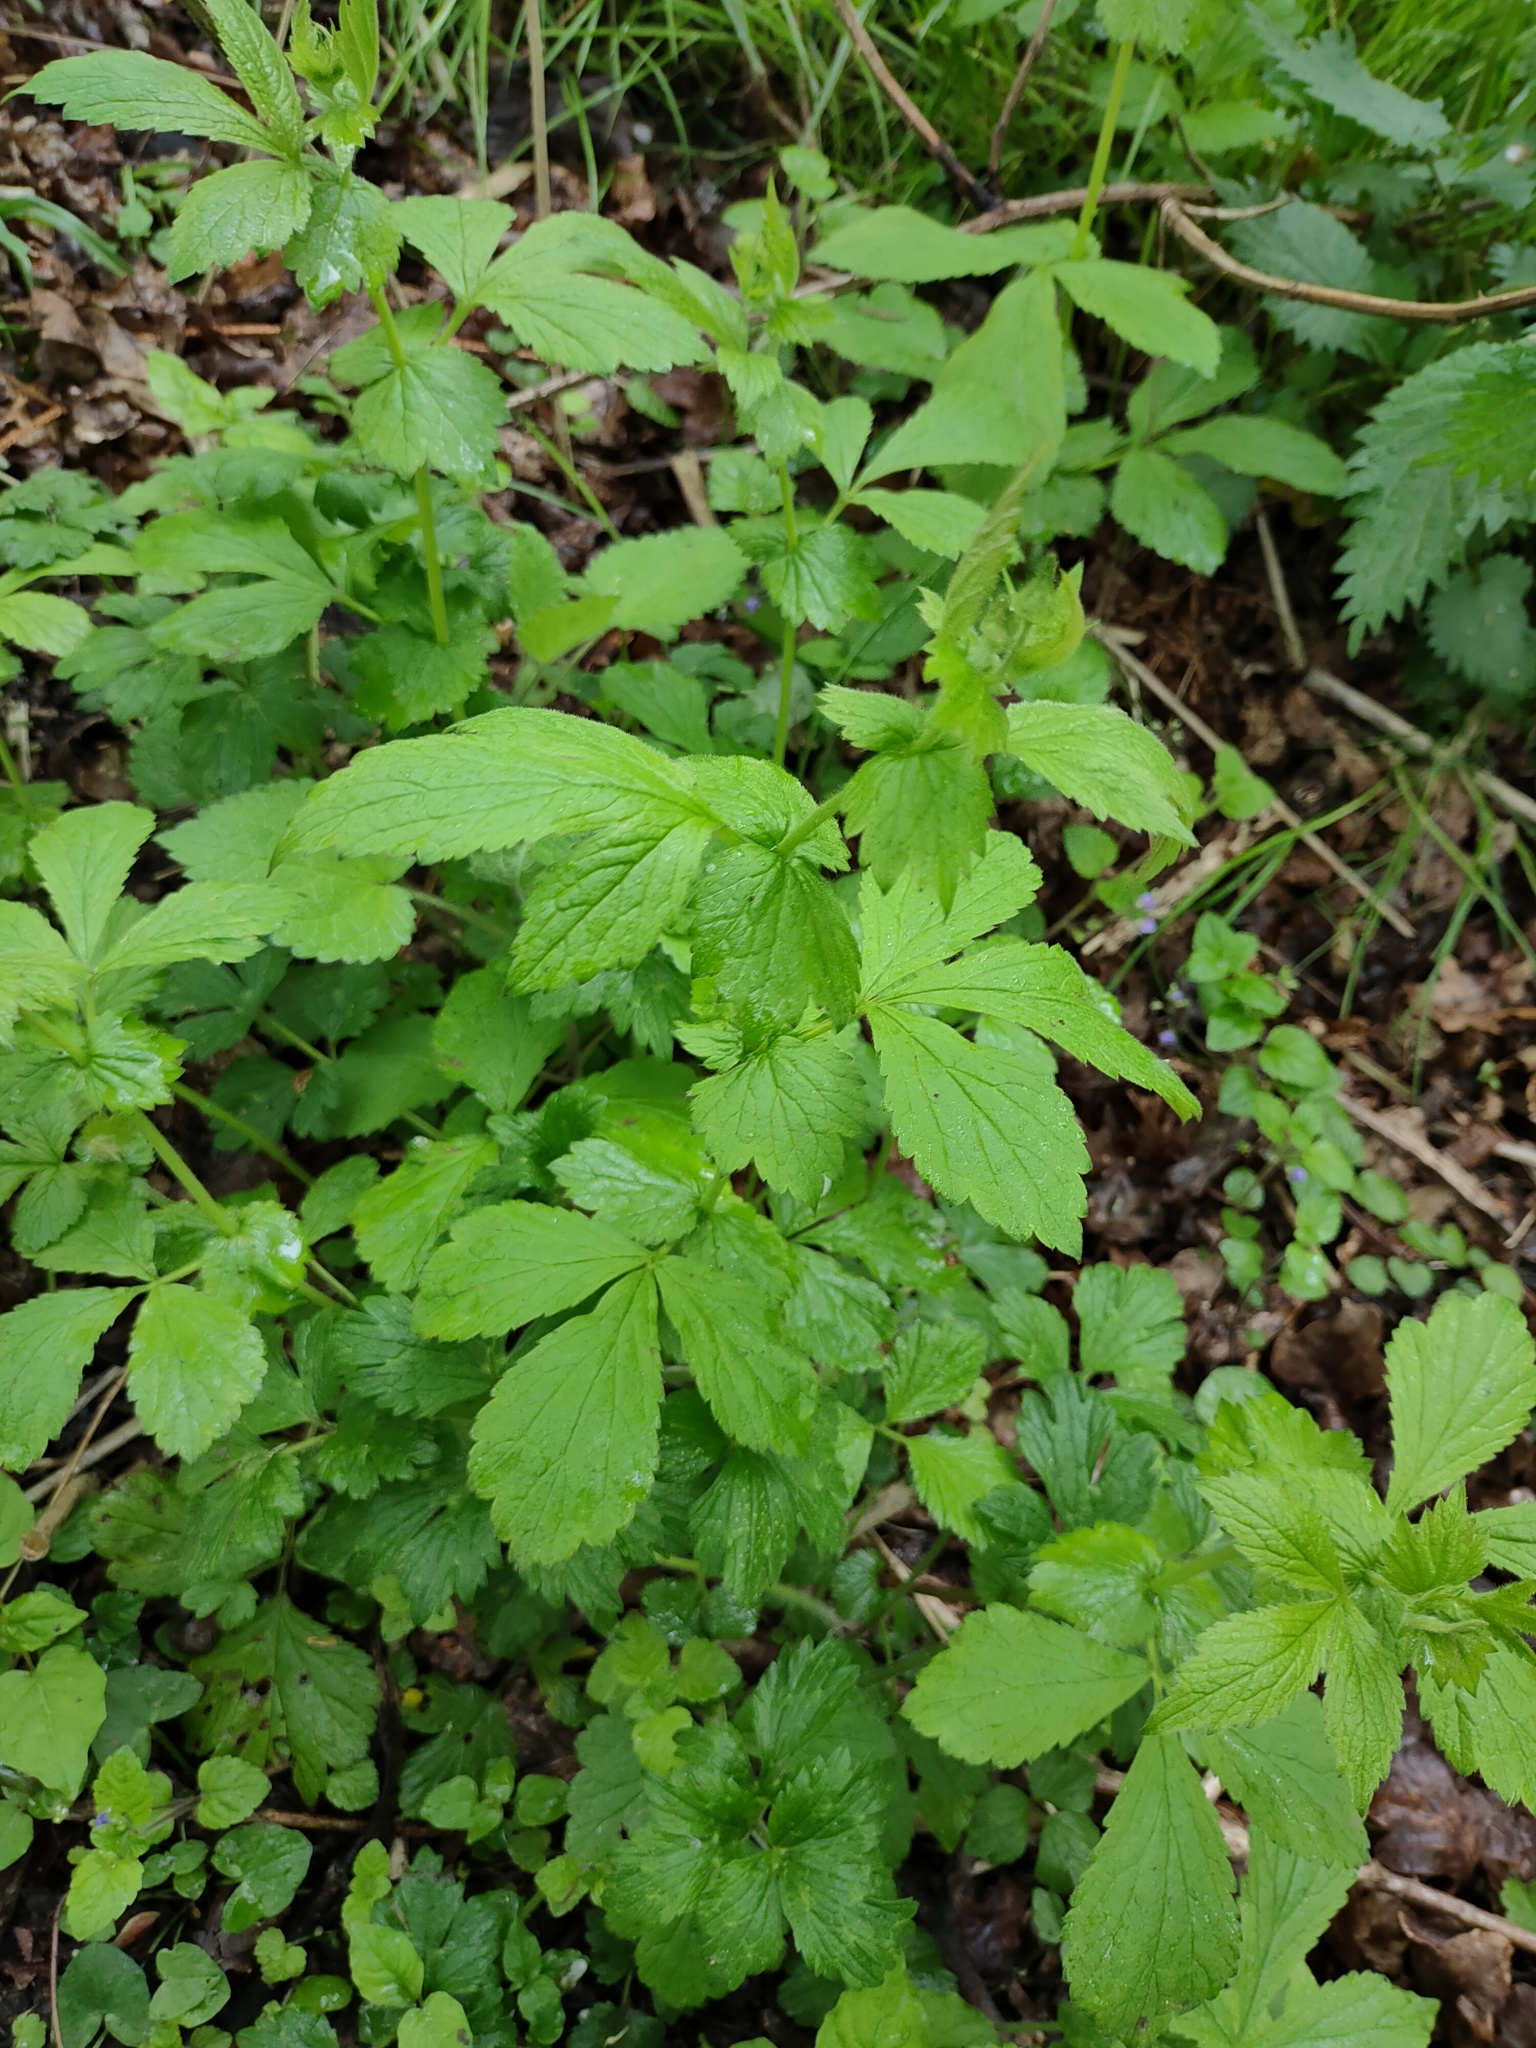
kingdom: Plantae
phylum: Tracheophyta
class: Magnoliopsida
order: Rosales
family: Rosaceae
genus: Geum
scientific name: Geum urbanum
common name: Wood avens
